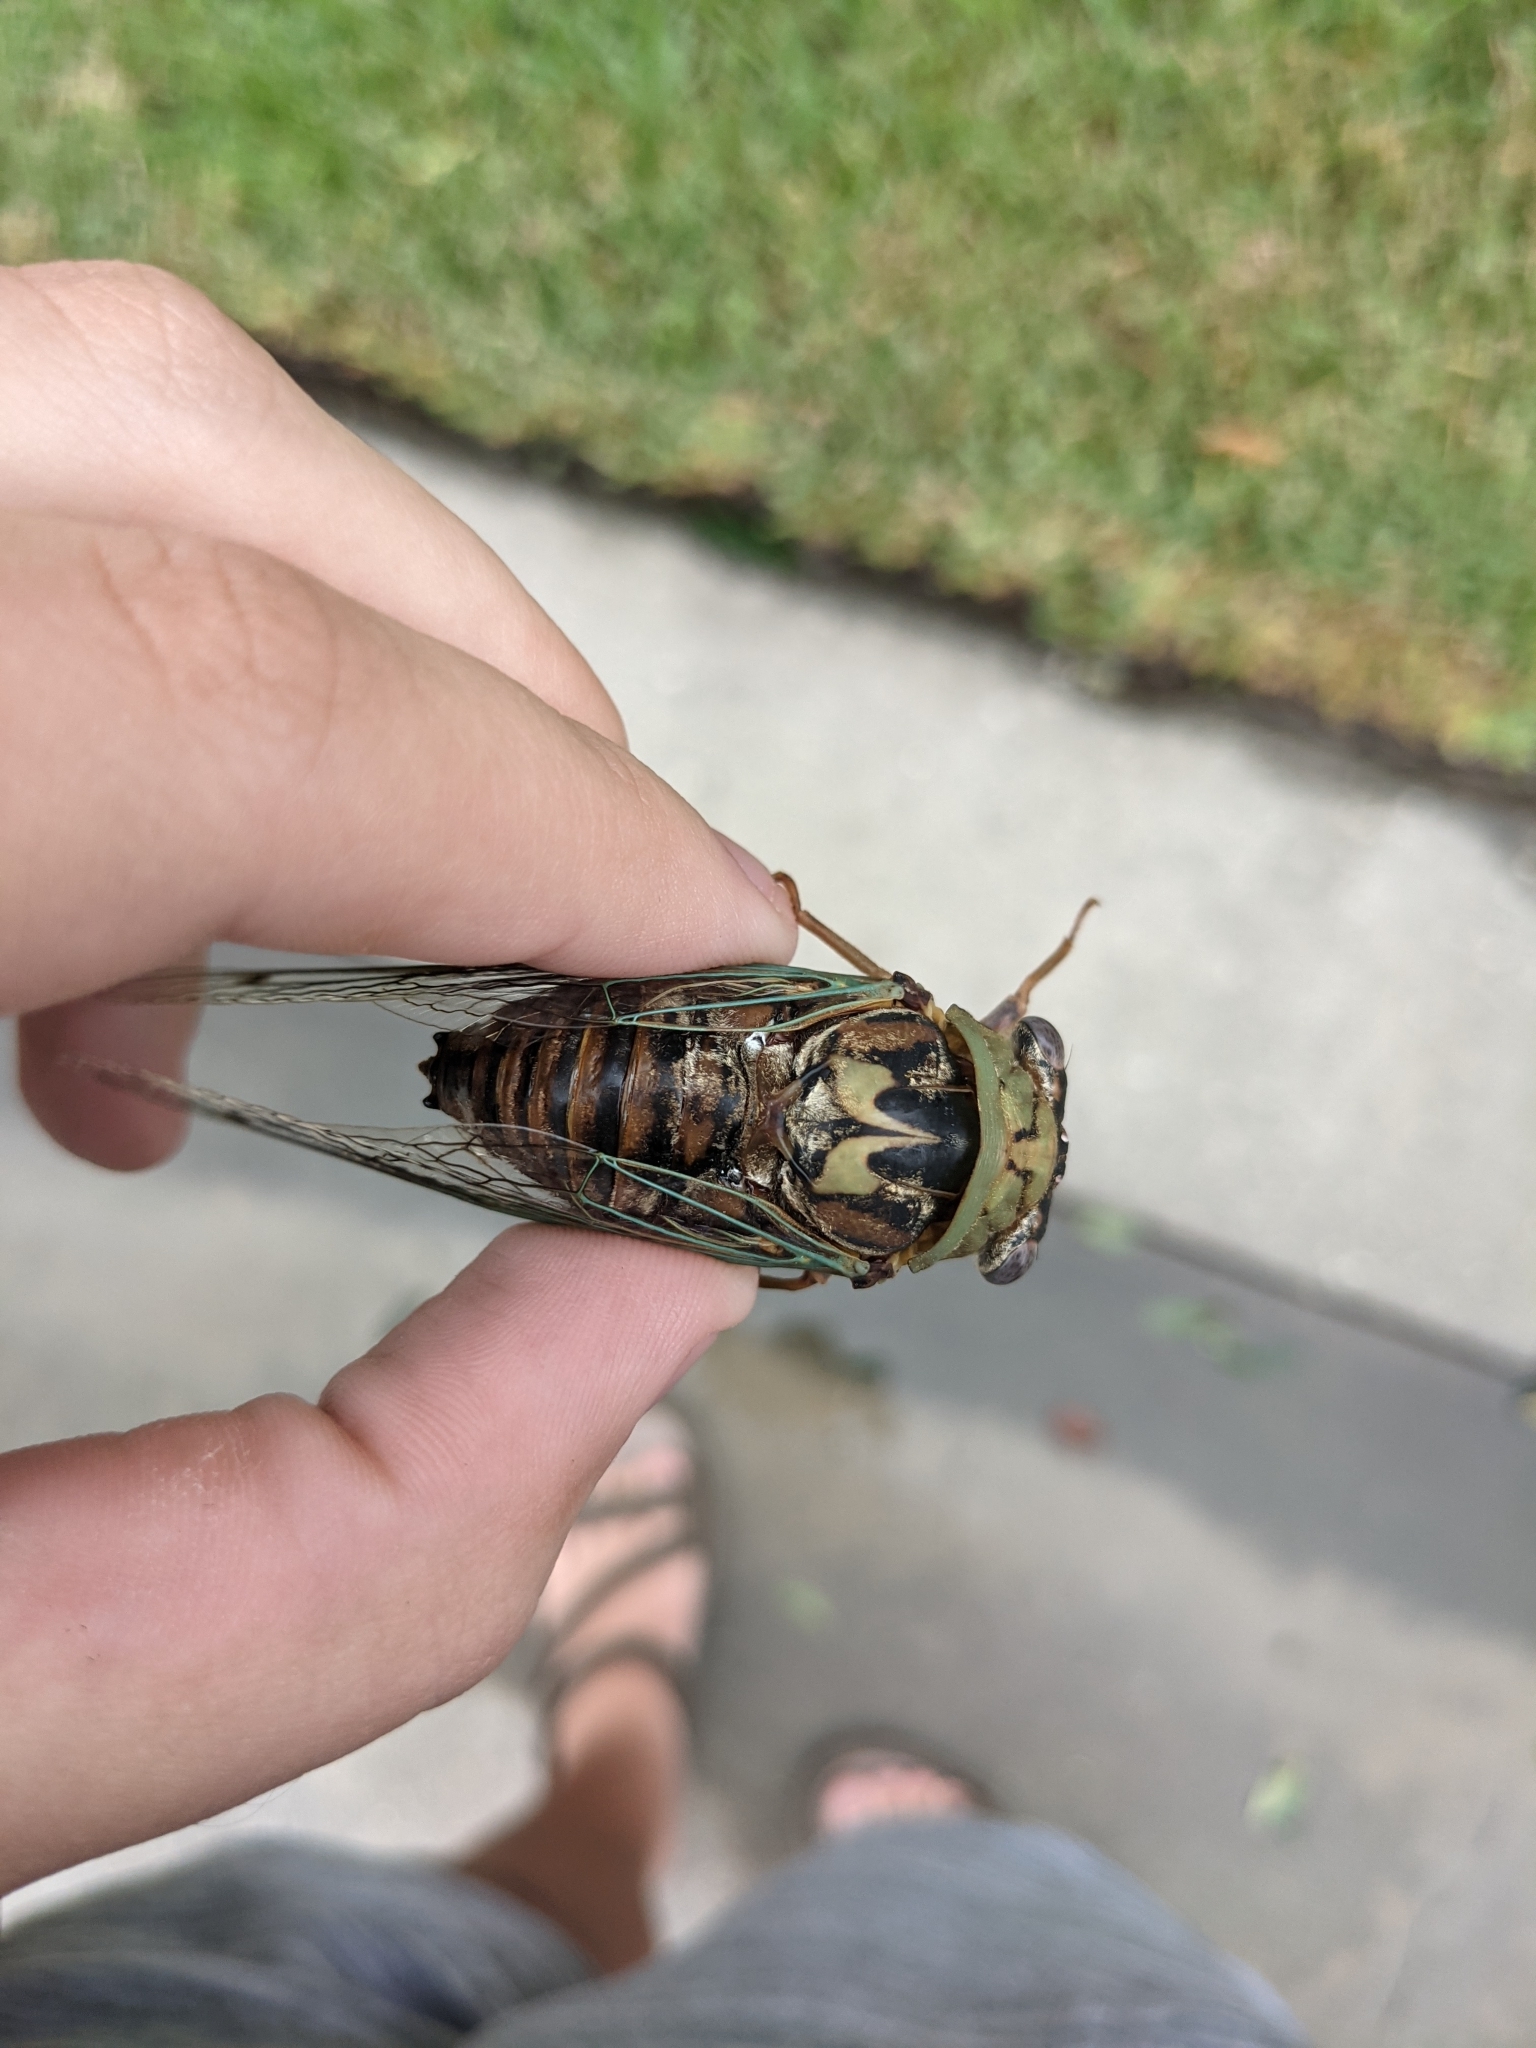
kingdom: Animalia
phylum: Arthropoda
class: Insecta
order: Hemiptera
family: Cicadidae
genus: Megatibicen
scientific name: Megatibicen resh
